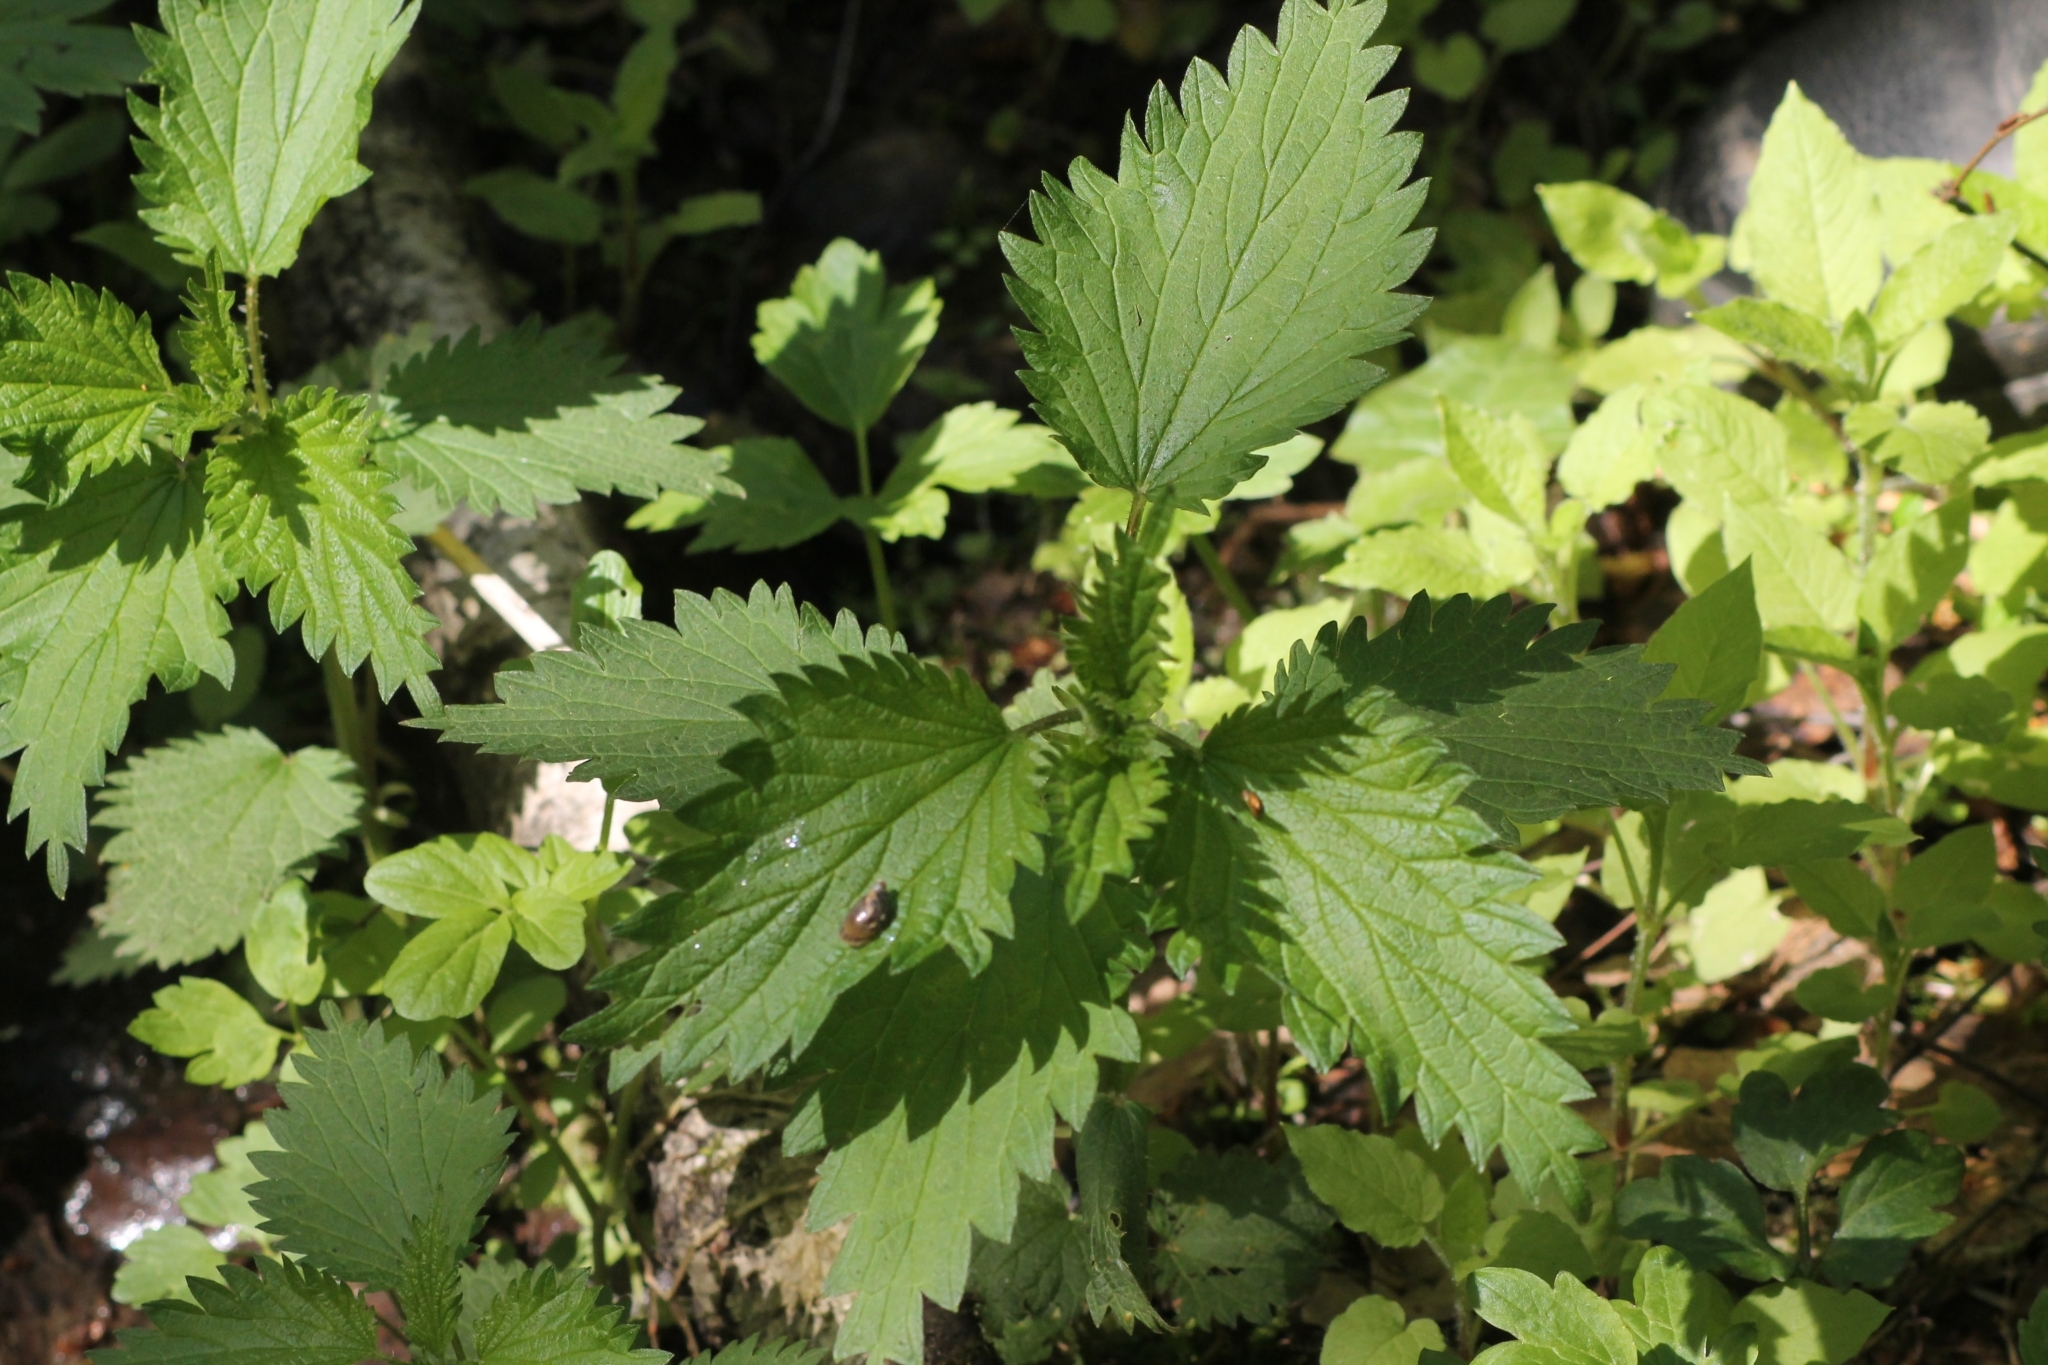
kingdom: Plantae
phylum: Tracheophyta
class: Magnoliopsida
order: Rosales
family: Urticaceae
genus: Urtica
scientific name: Urtica dioica
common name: Common nettle
